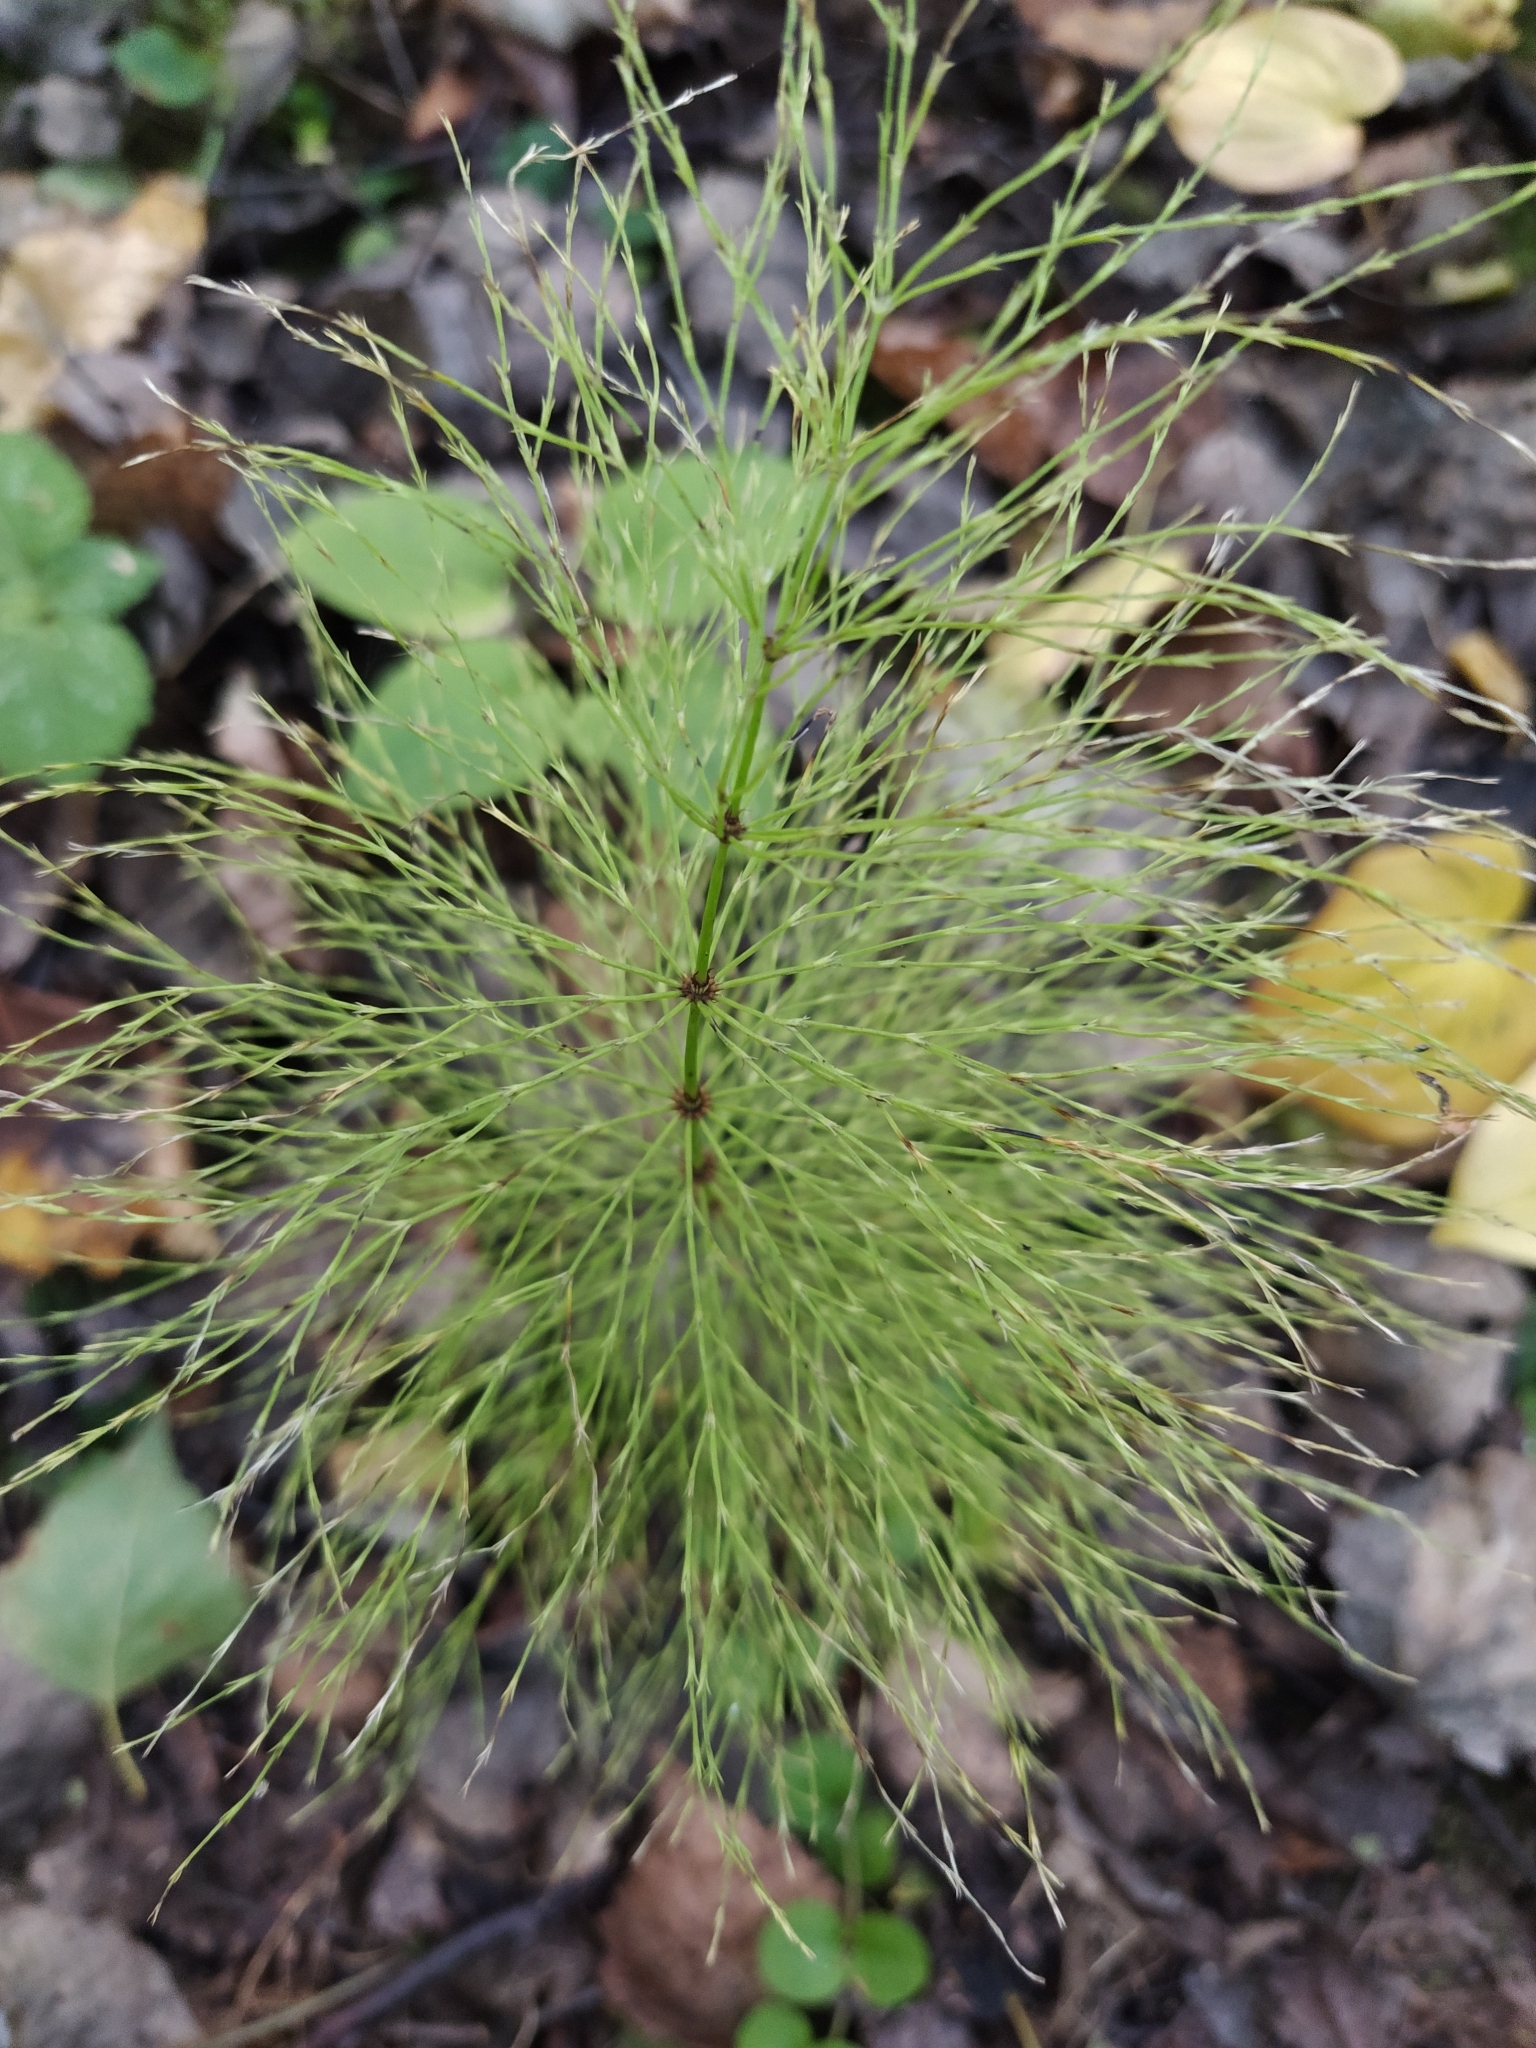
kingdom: Plantae
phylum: Tracheophyta
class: Polypodiopsida
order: Equisetales
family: Equisetaceae
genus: Equisetum
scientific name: Equisetum sylvaticum
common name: Wood horsetail
